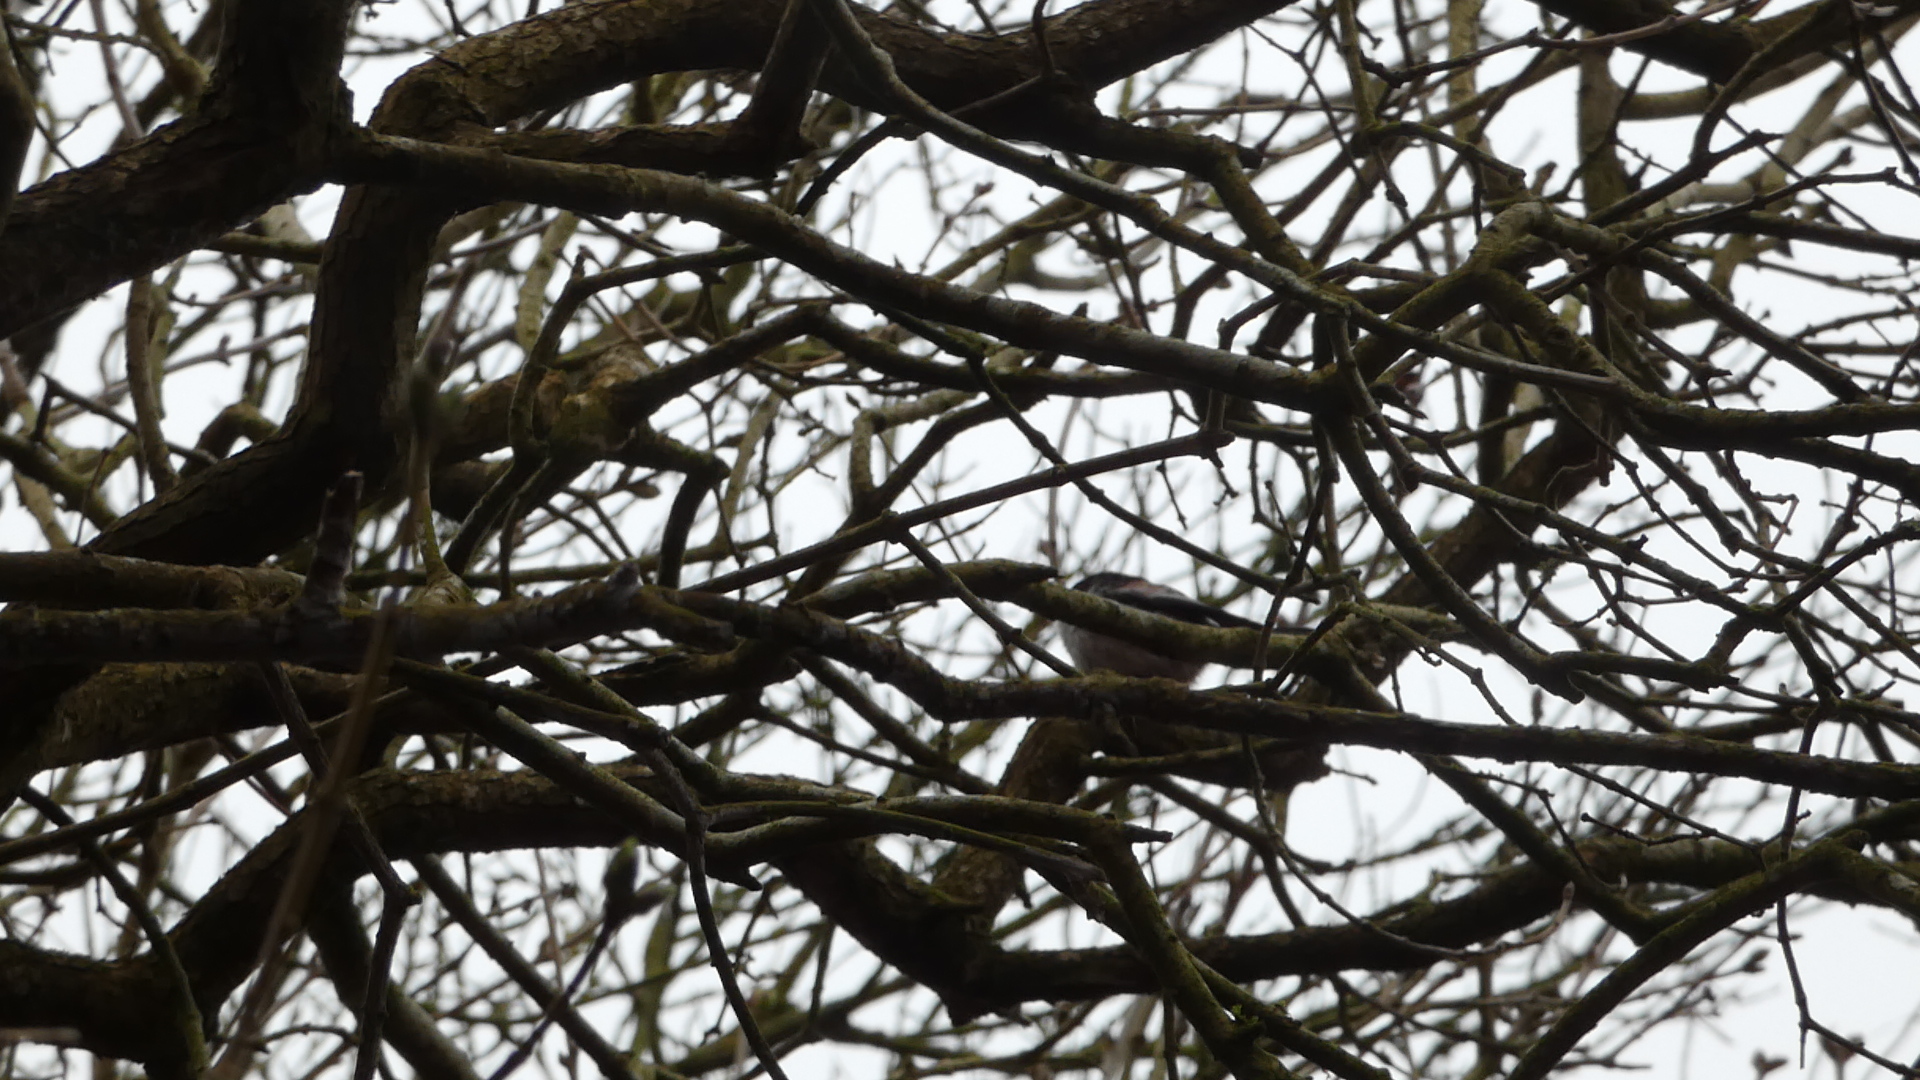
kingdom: Animalia
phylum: Chordata
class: Aves
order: Passeriformes
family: Aegithalidae
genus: Aegithalos
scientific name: Aegithalos caudatus
